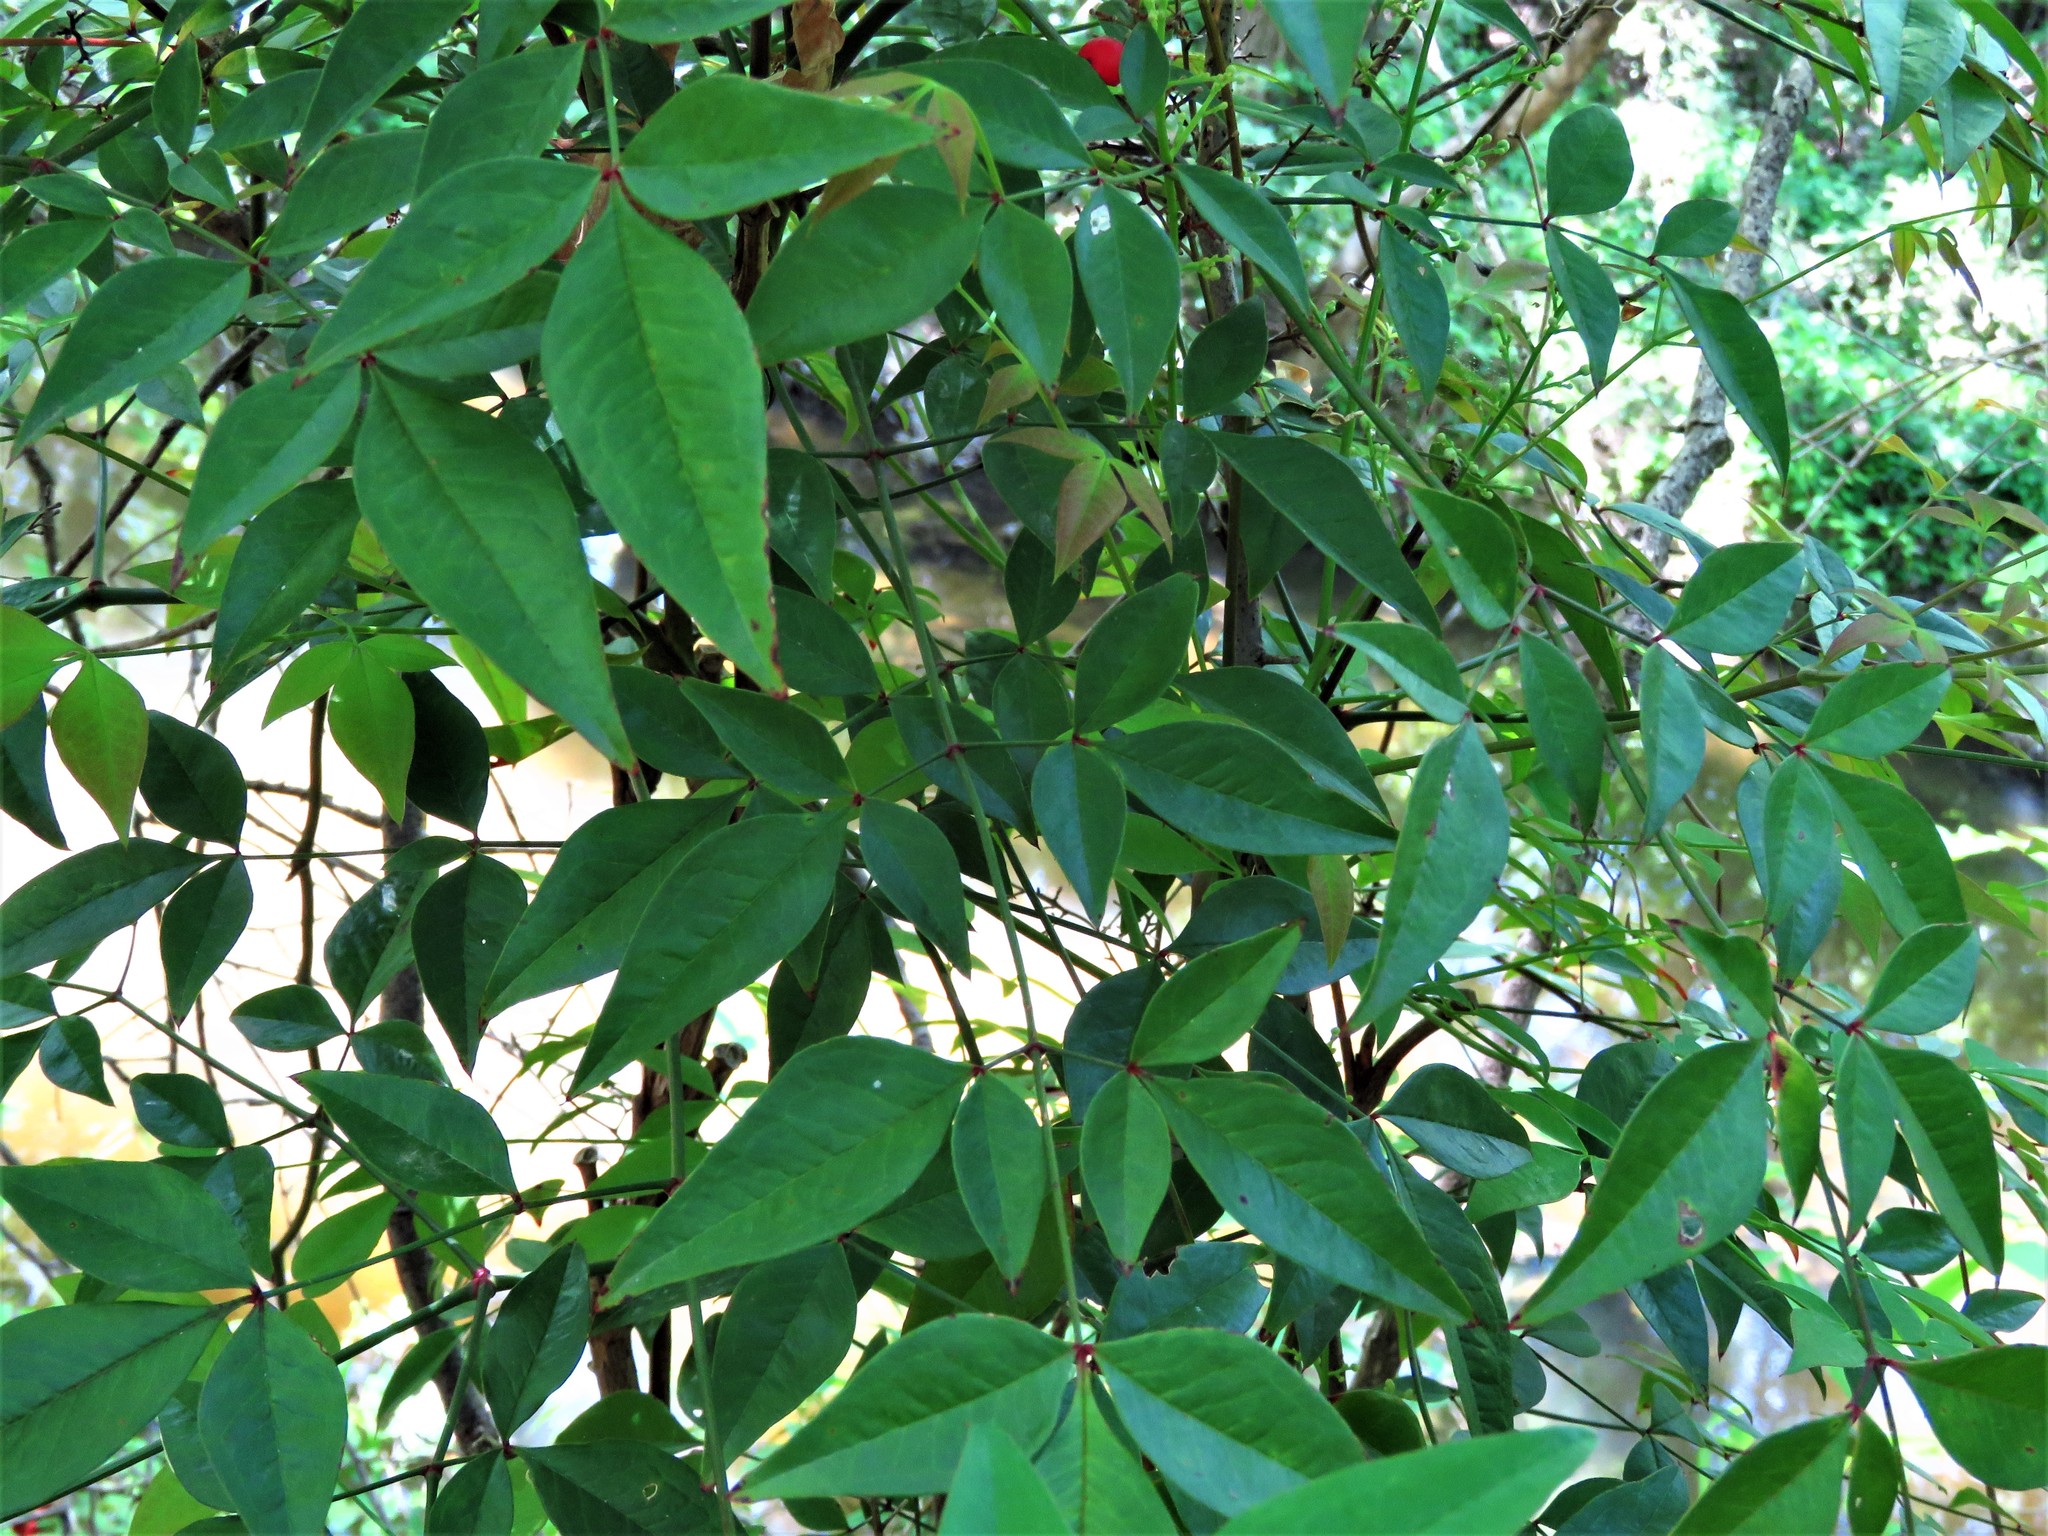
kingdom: Plantae
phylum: Tracheophyta
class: Magnoliopsida
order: Ranunculales
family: Berberidaceae
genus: Nandina
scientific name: Nandina domestica
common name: Sacred bamboo
